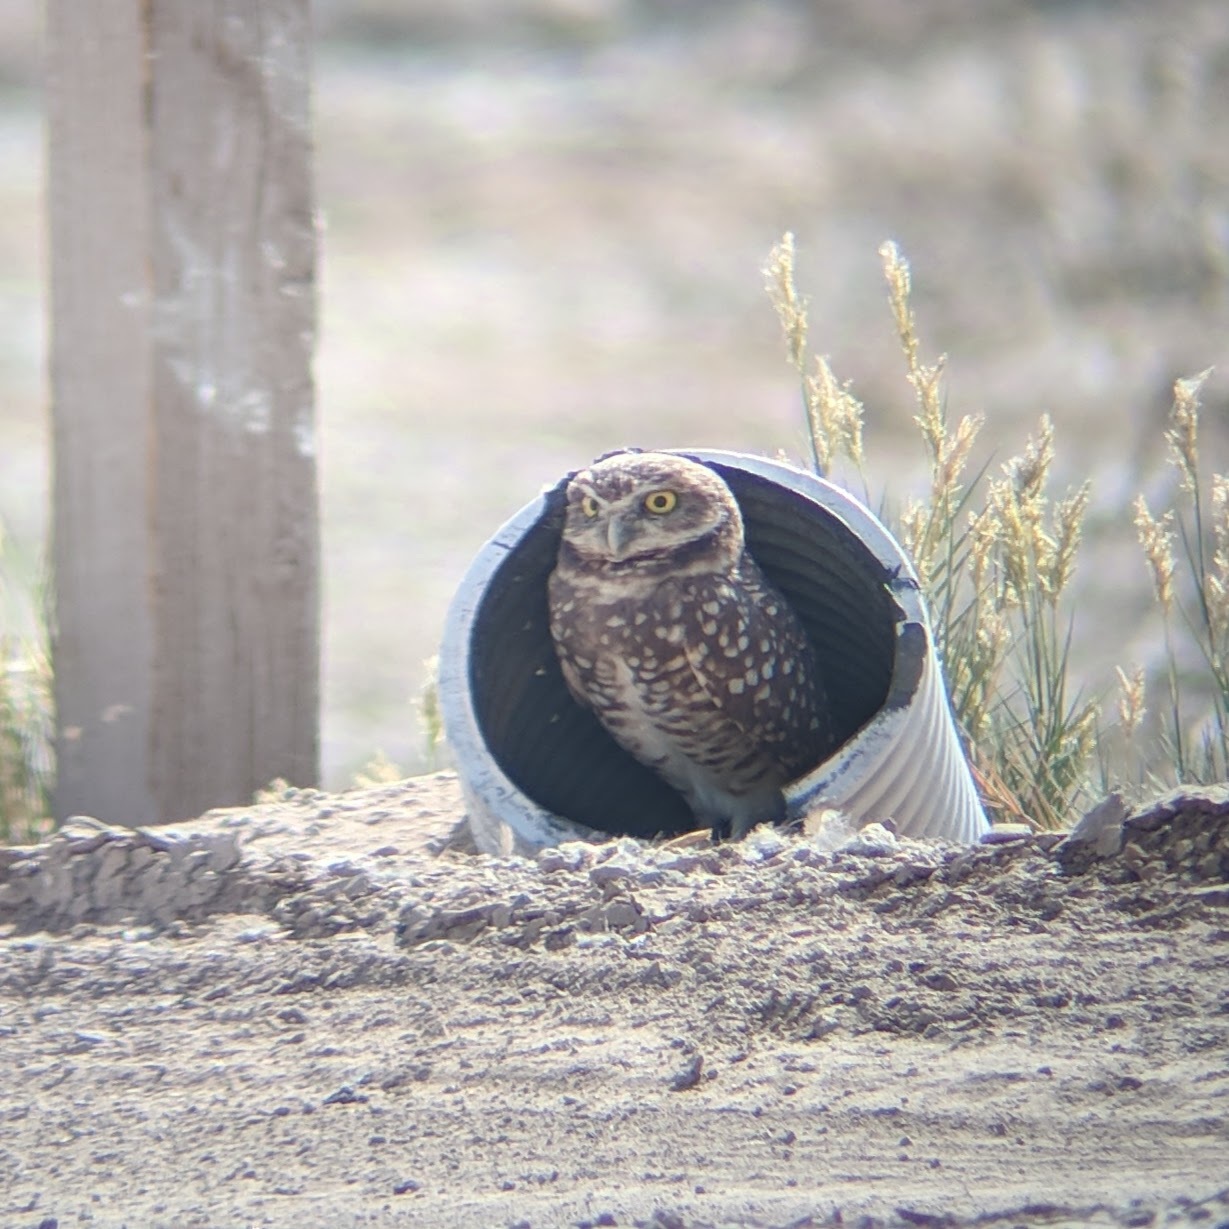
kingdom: Animalia
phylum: Chordata
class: Aves
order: Strigiformes
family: Strigidae
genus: Athene
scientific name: Athene cunicularia
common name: Burrowing owl
